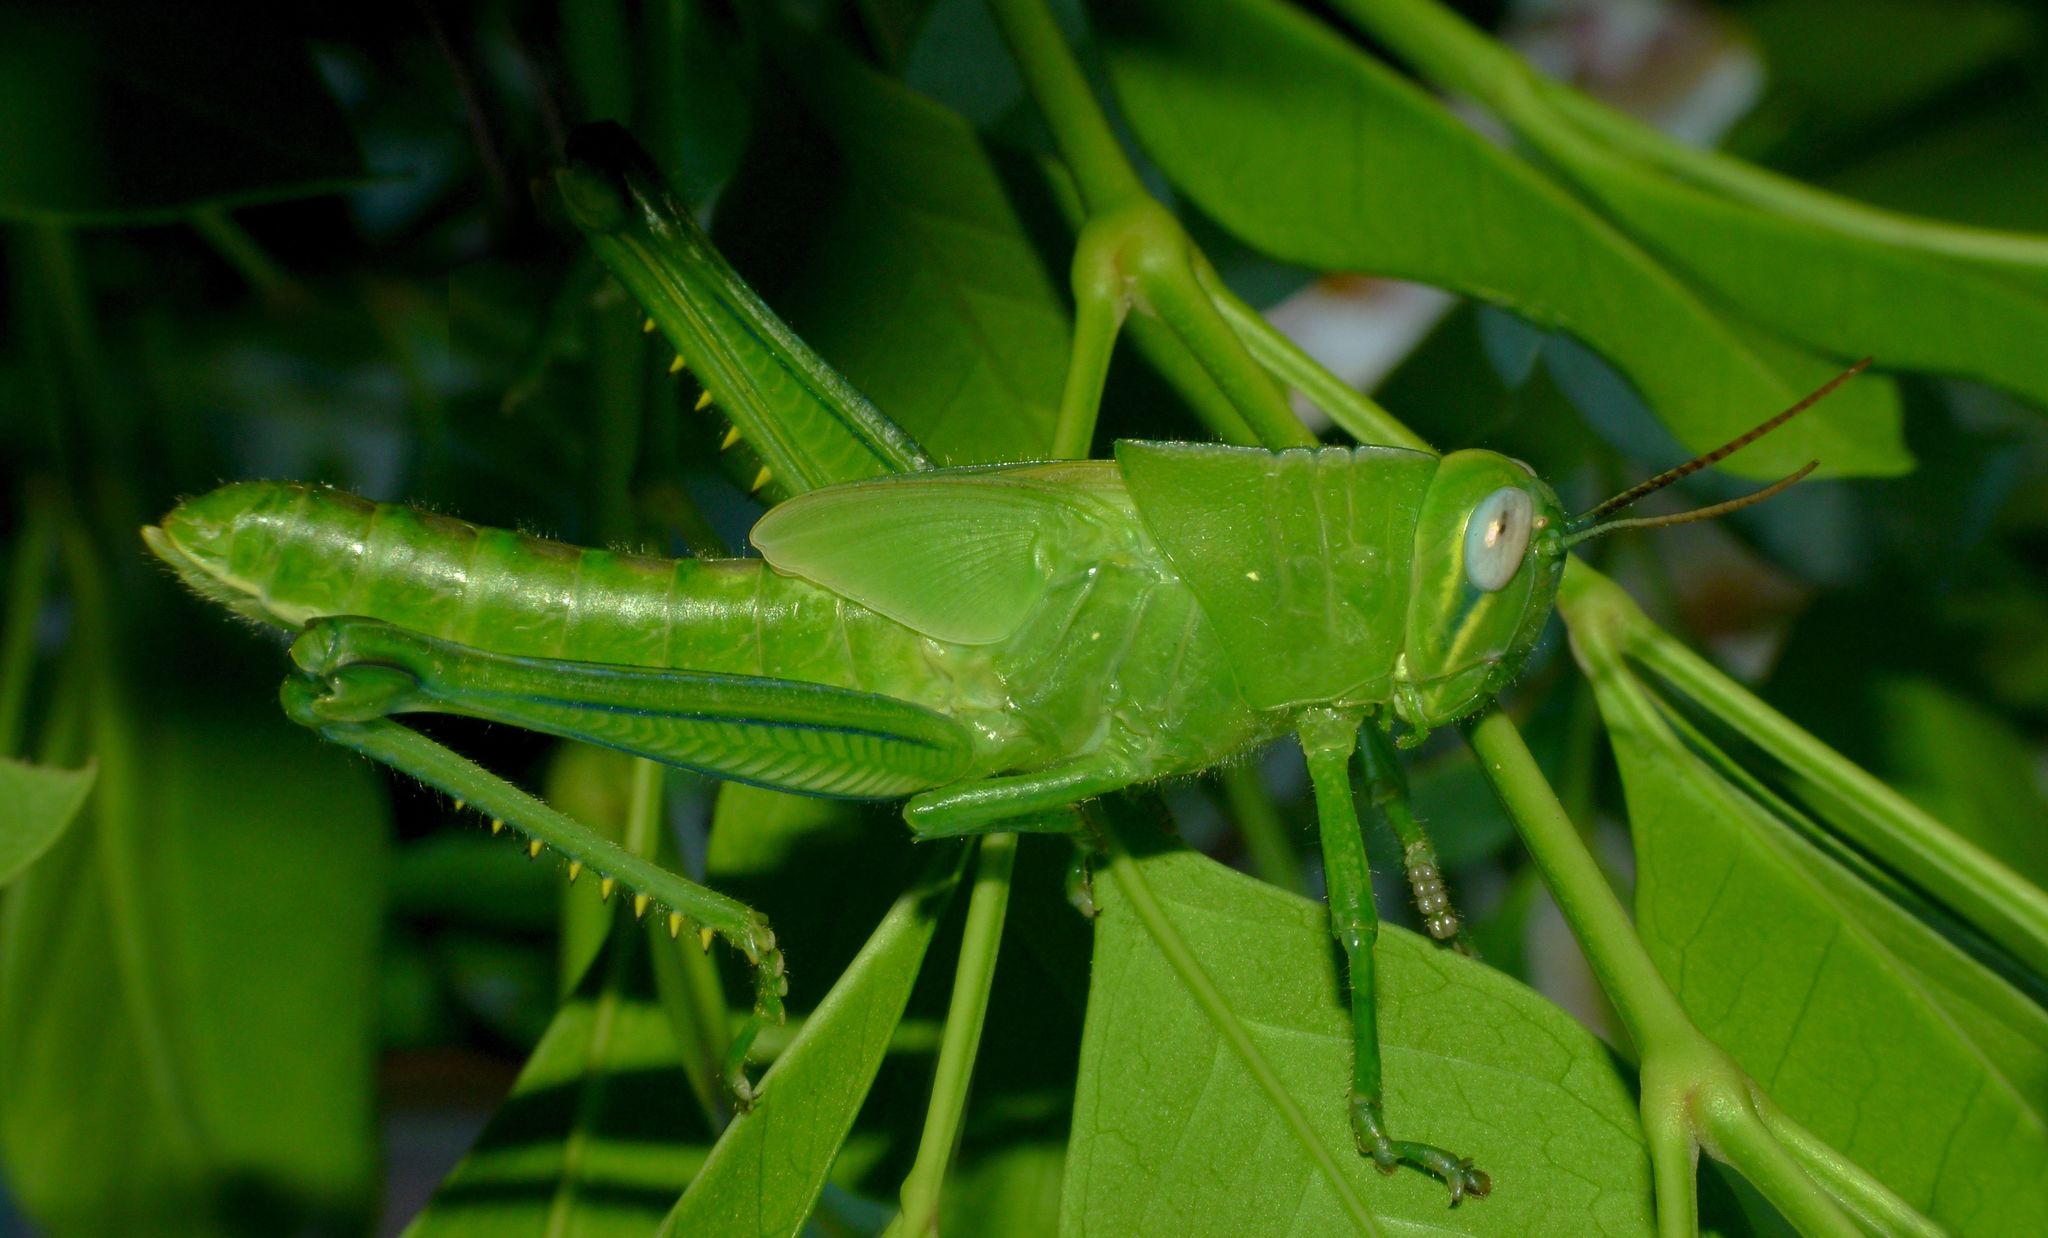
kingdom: Animalia
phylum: Arthropoda
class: Insecta
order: Orthoptera
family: Acrididae
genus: Valanga
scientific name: Valanga irregularis
